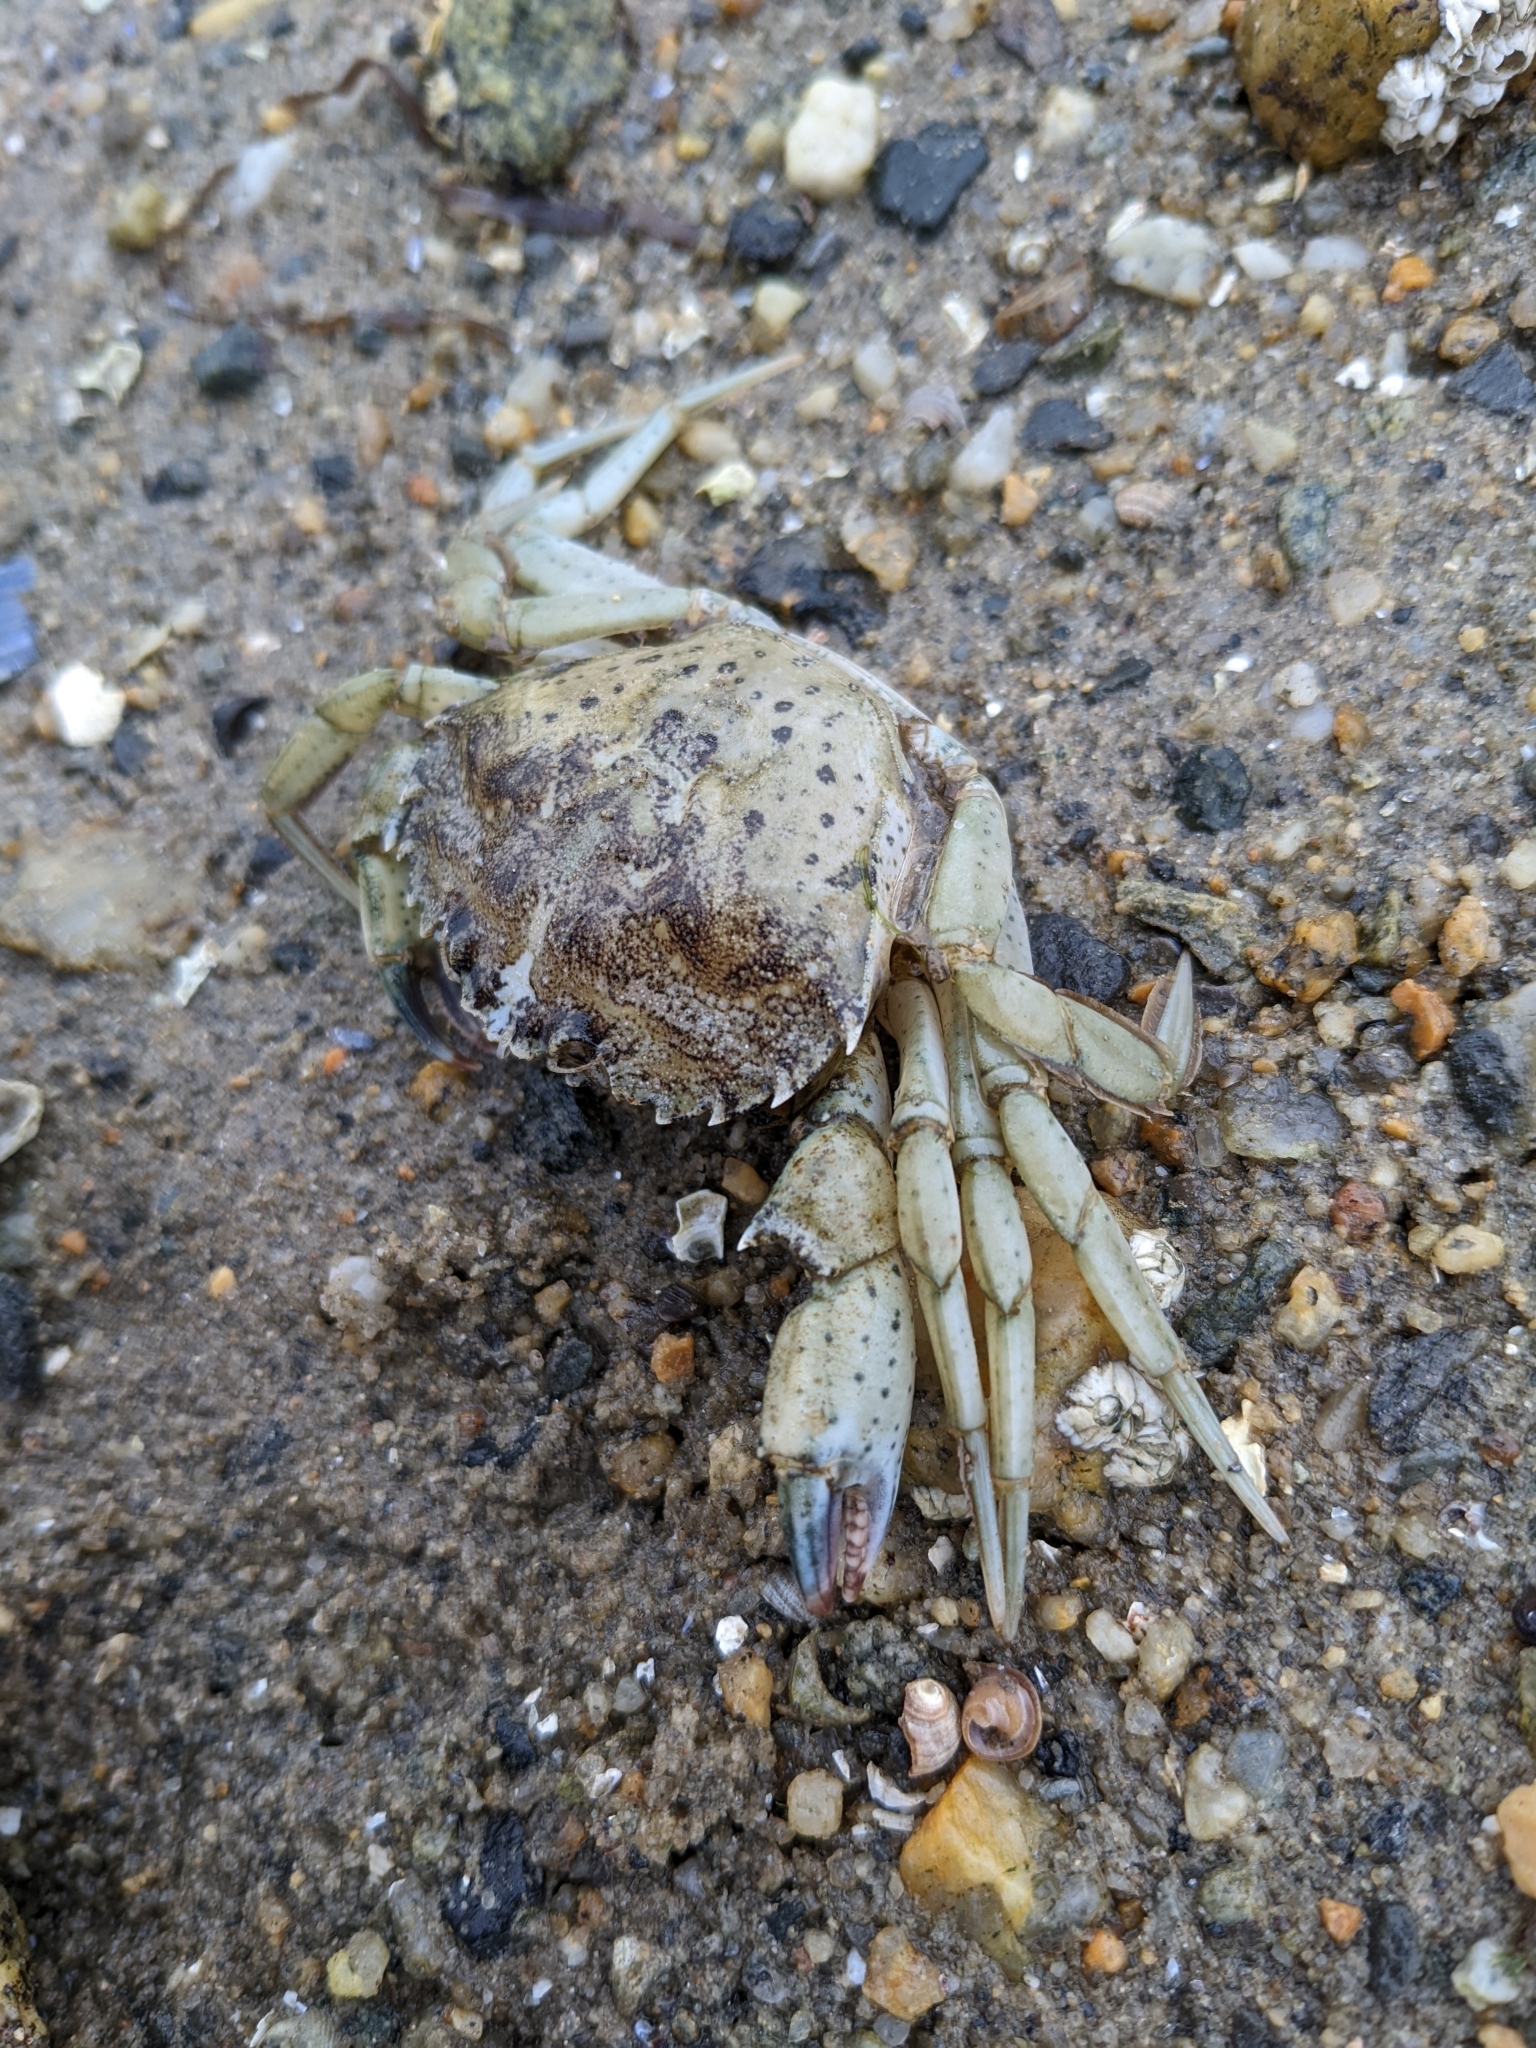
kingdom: Animalia
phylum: Arthropoda
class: Malacostraca
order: Decapoda
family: Carcinidae
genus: Carcinus
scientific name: Carcinus maenas
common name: European green crab
